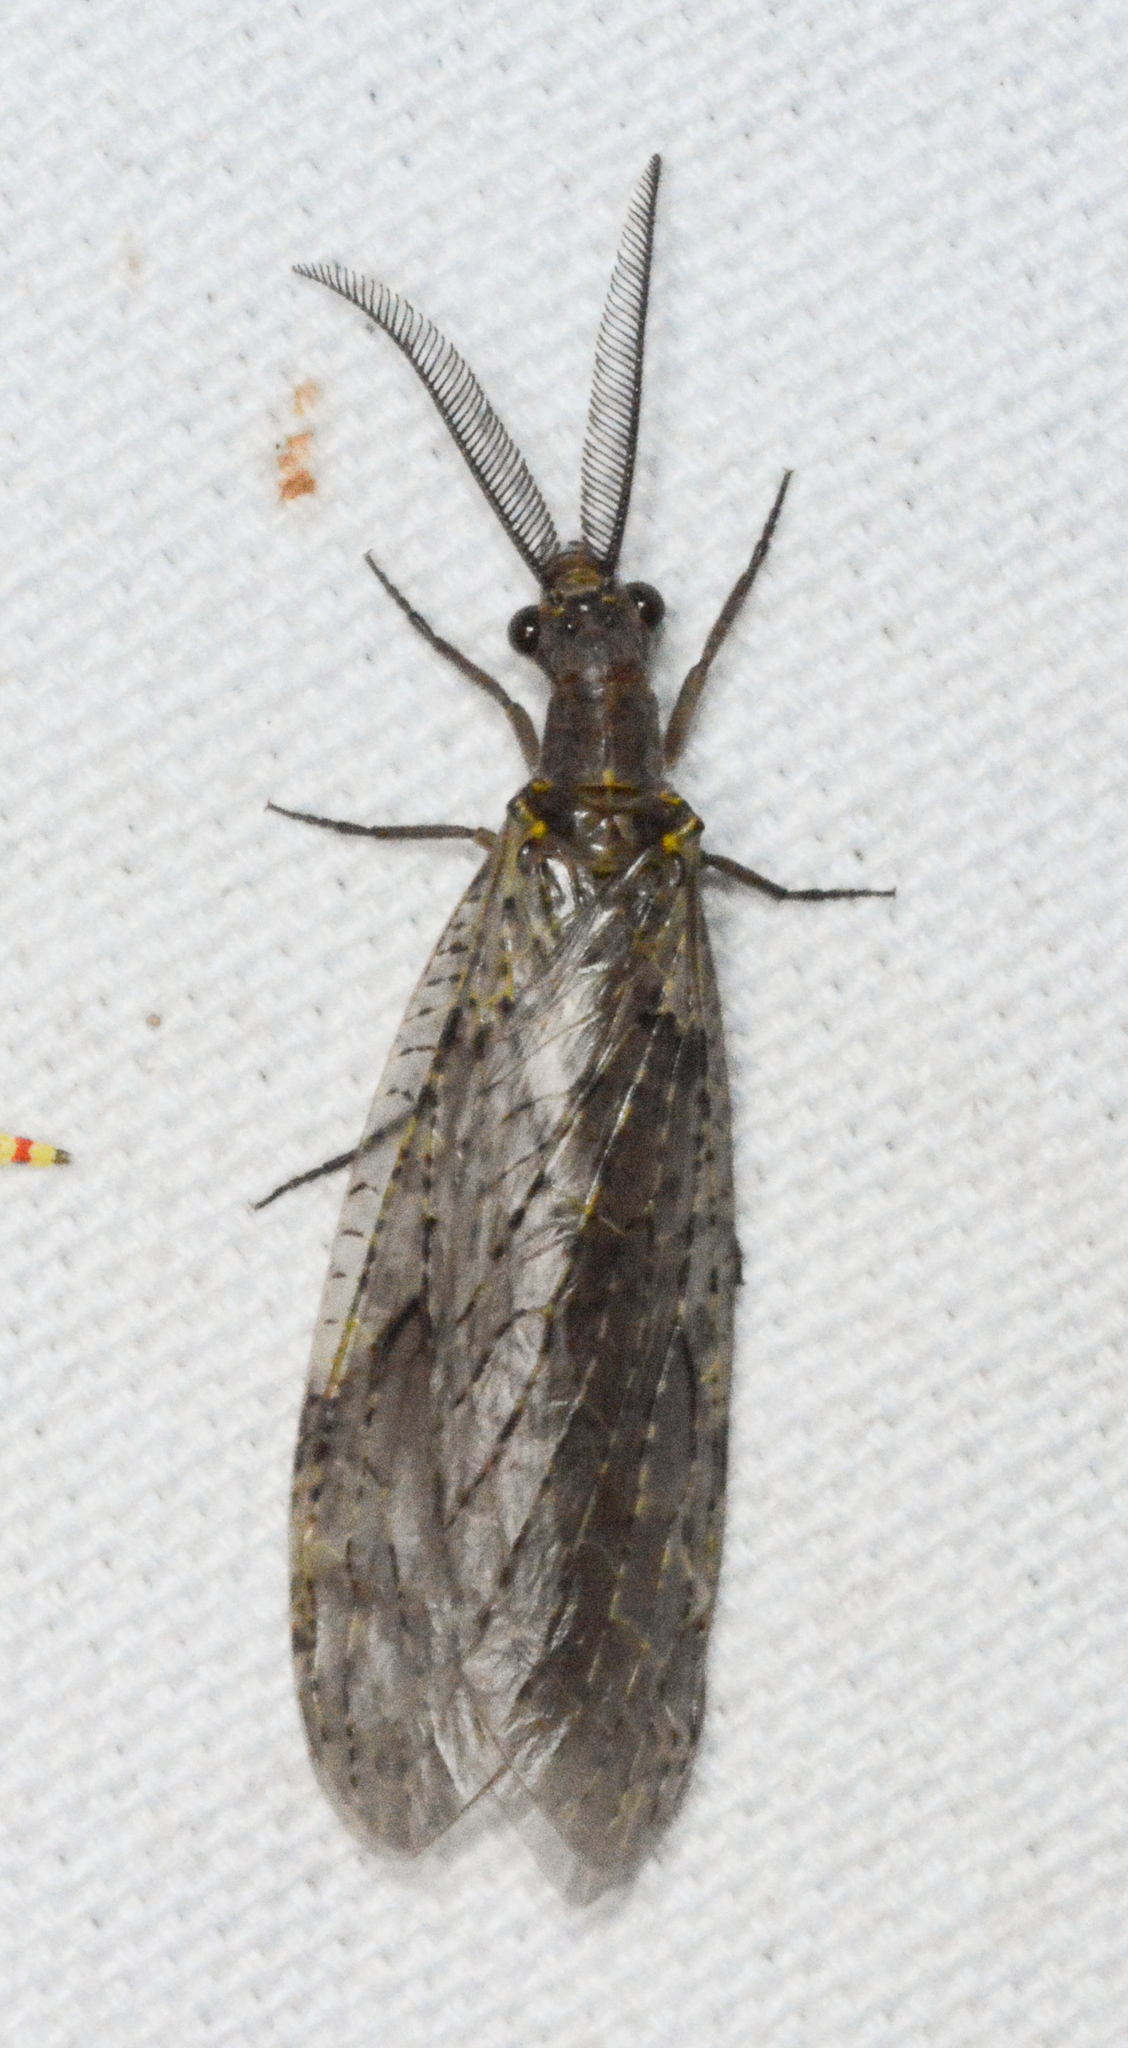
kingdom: Animalia
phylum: Arthropoda
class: Insecta
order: Megaloptera
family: Corydalidae
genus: Chauliodes
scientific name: Chauliodes rastricornis
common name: Spring fishfly
